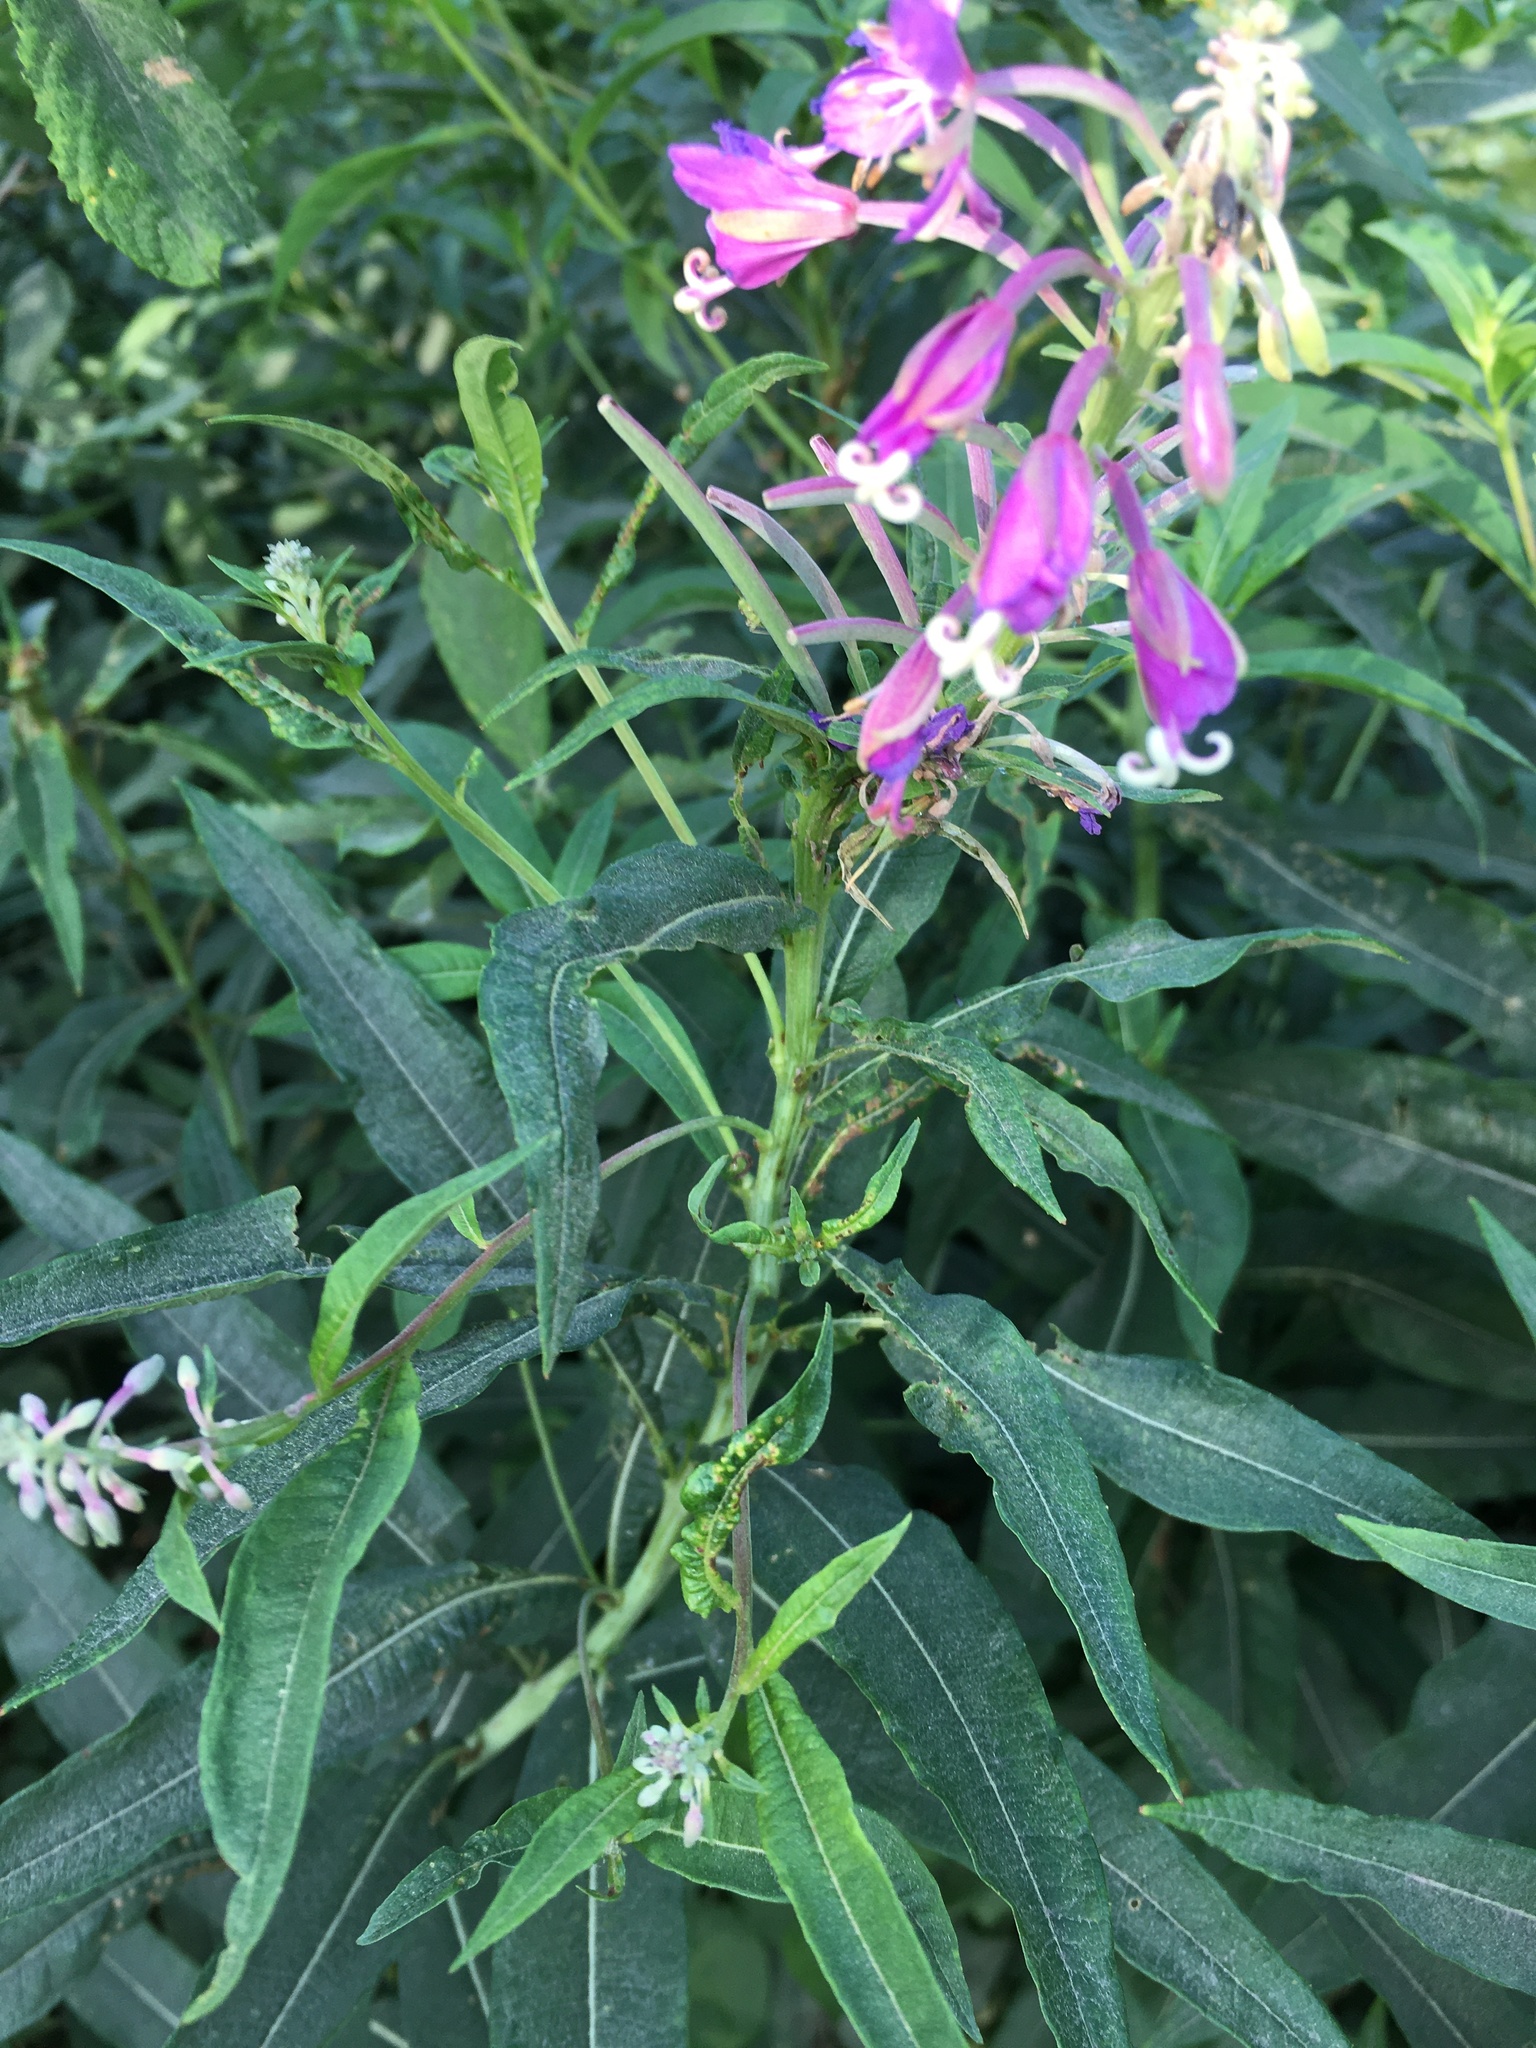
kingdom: Plantae
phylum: Tracheophyta
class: Magnoliopsida
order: Myrtales
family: Onagraceae
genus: Chamaenerion
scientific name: Chamaenerion angustifolium
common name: Fireweed
